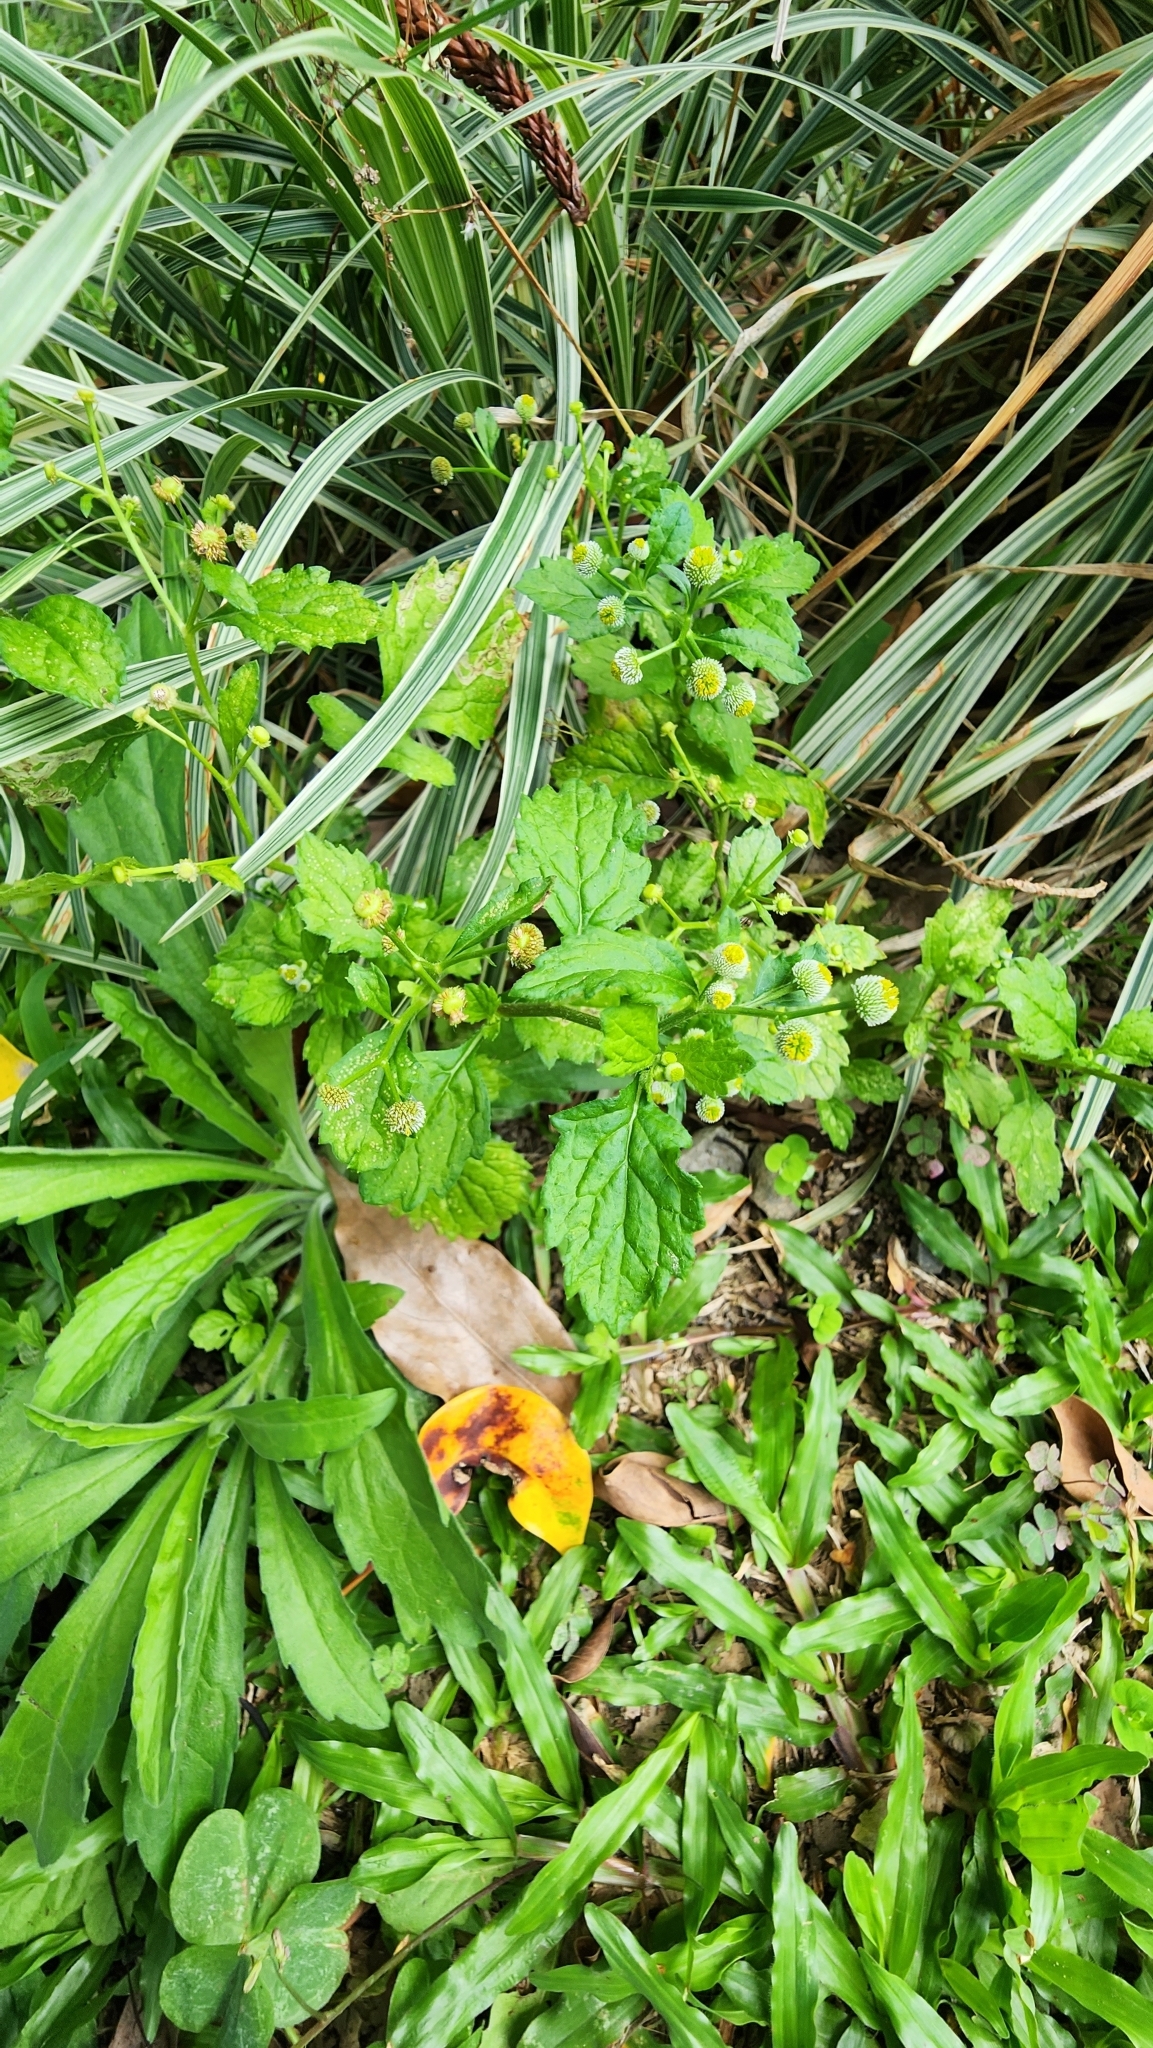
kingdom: Plantae
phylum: Tracheophyta
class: Magnoliopsida
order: Asterales
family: Asteraceae
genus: Dichrocephala
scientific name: Dichrocephala integrifolia
